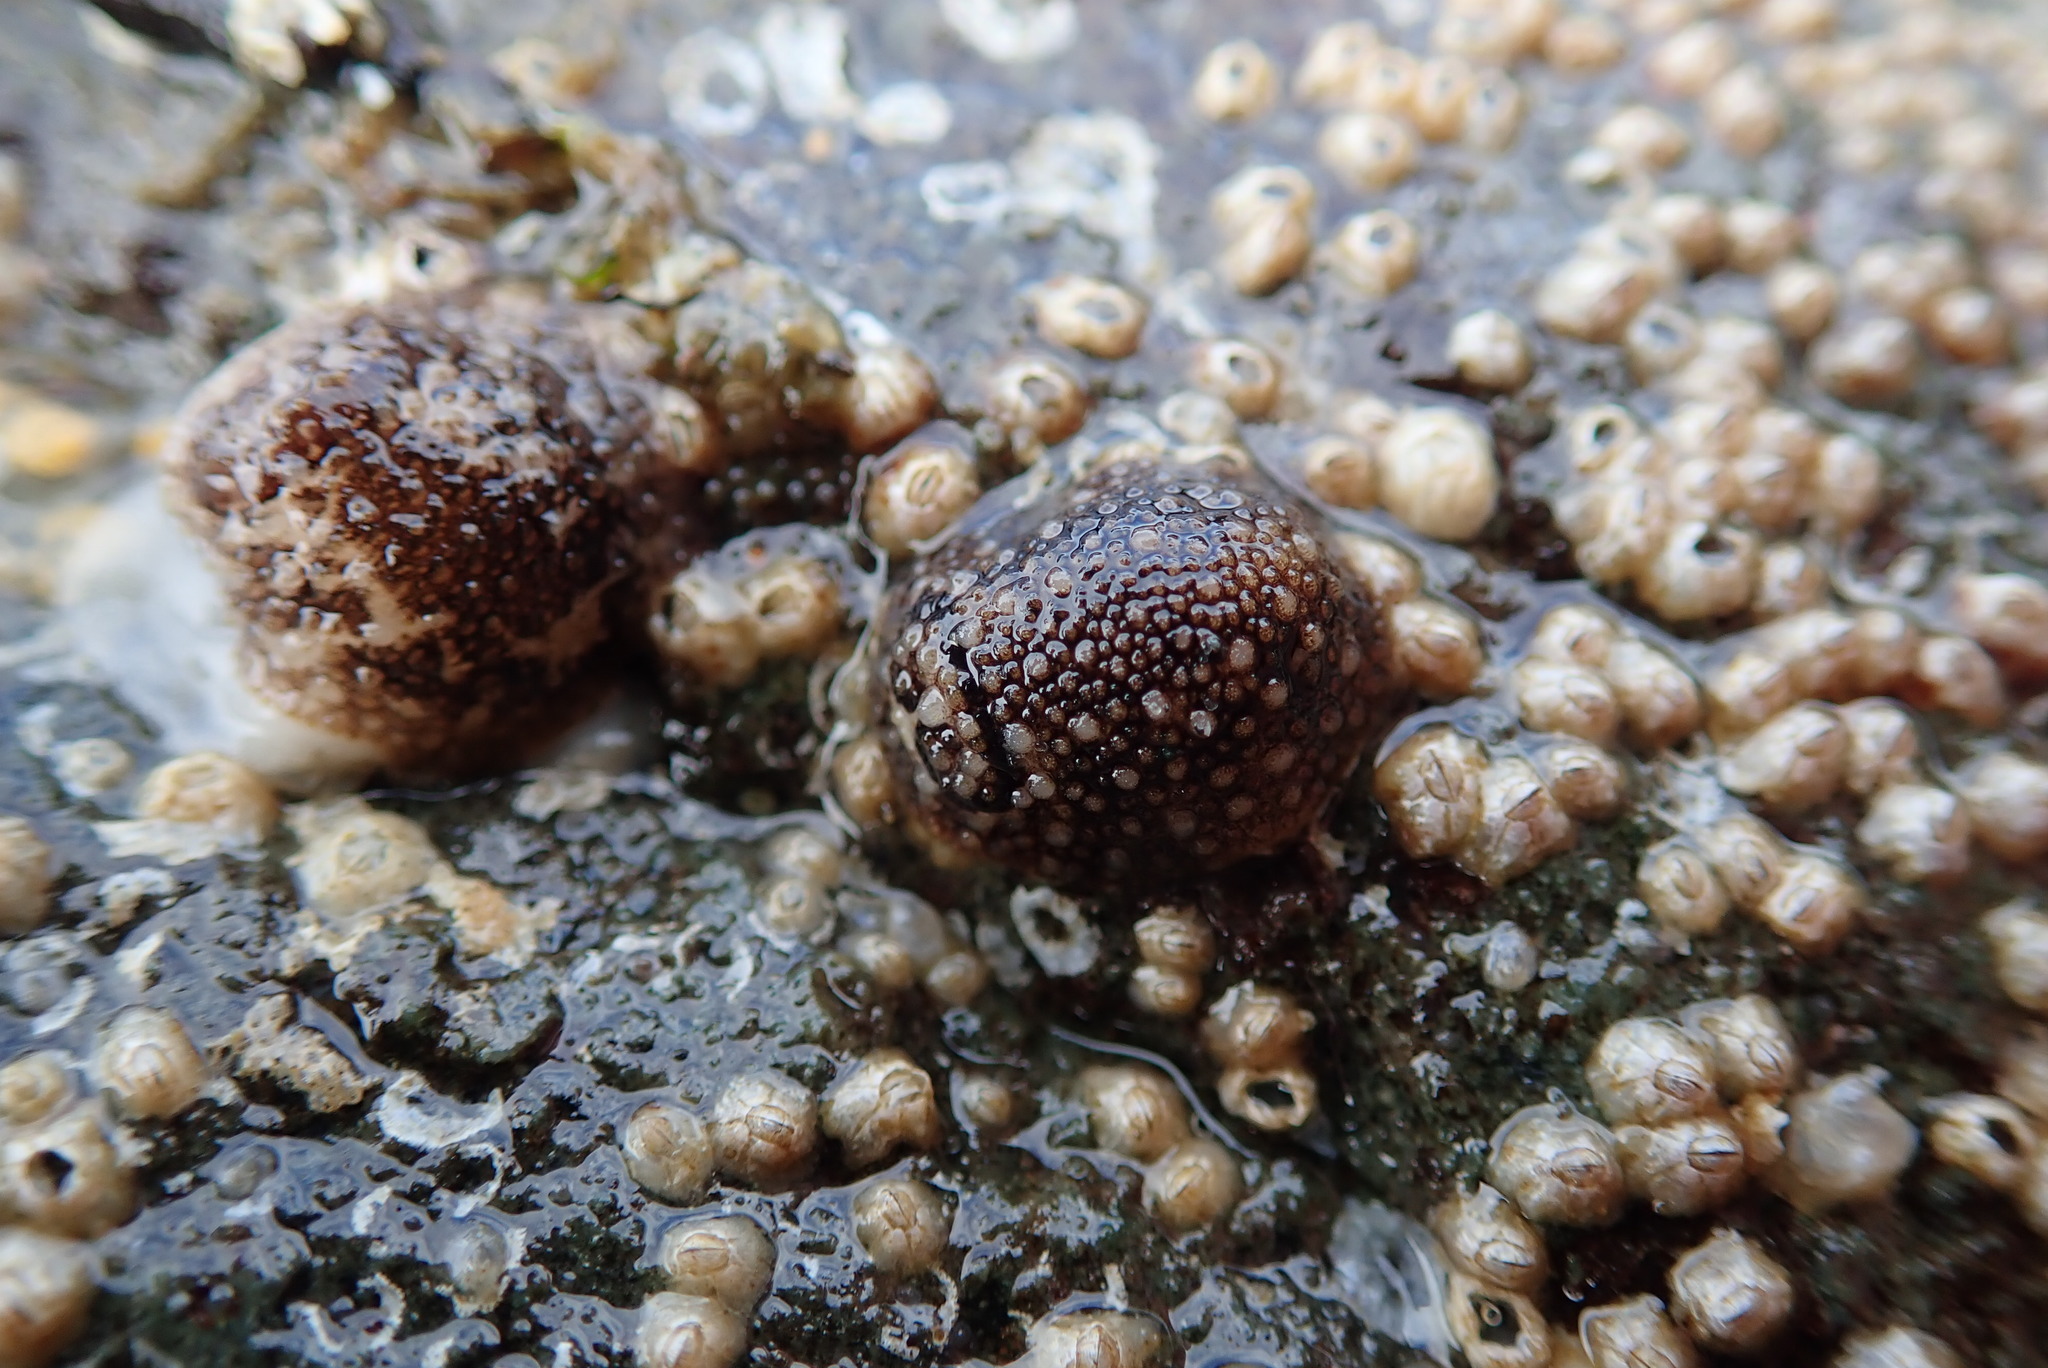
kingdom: Animalia
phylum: Mollusca
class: Gastropoda
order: Nudibranchia
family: Onchidorididae
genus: Onchidoris
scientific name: Onchidoris bilamellata
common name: Barnacle-eating onchidoris
